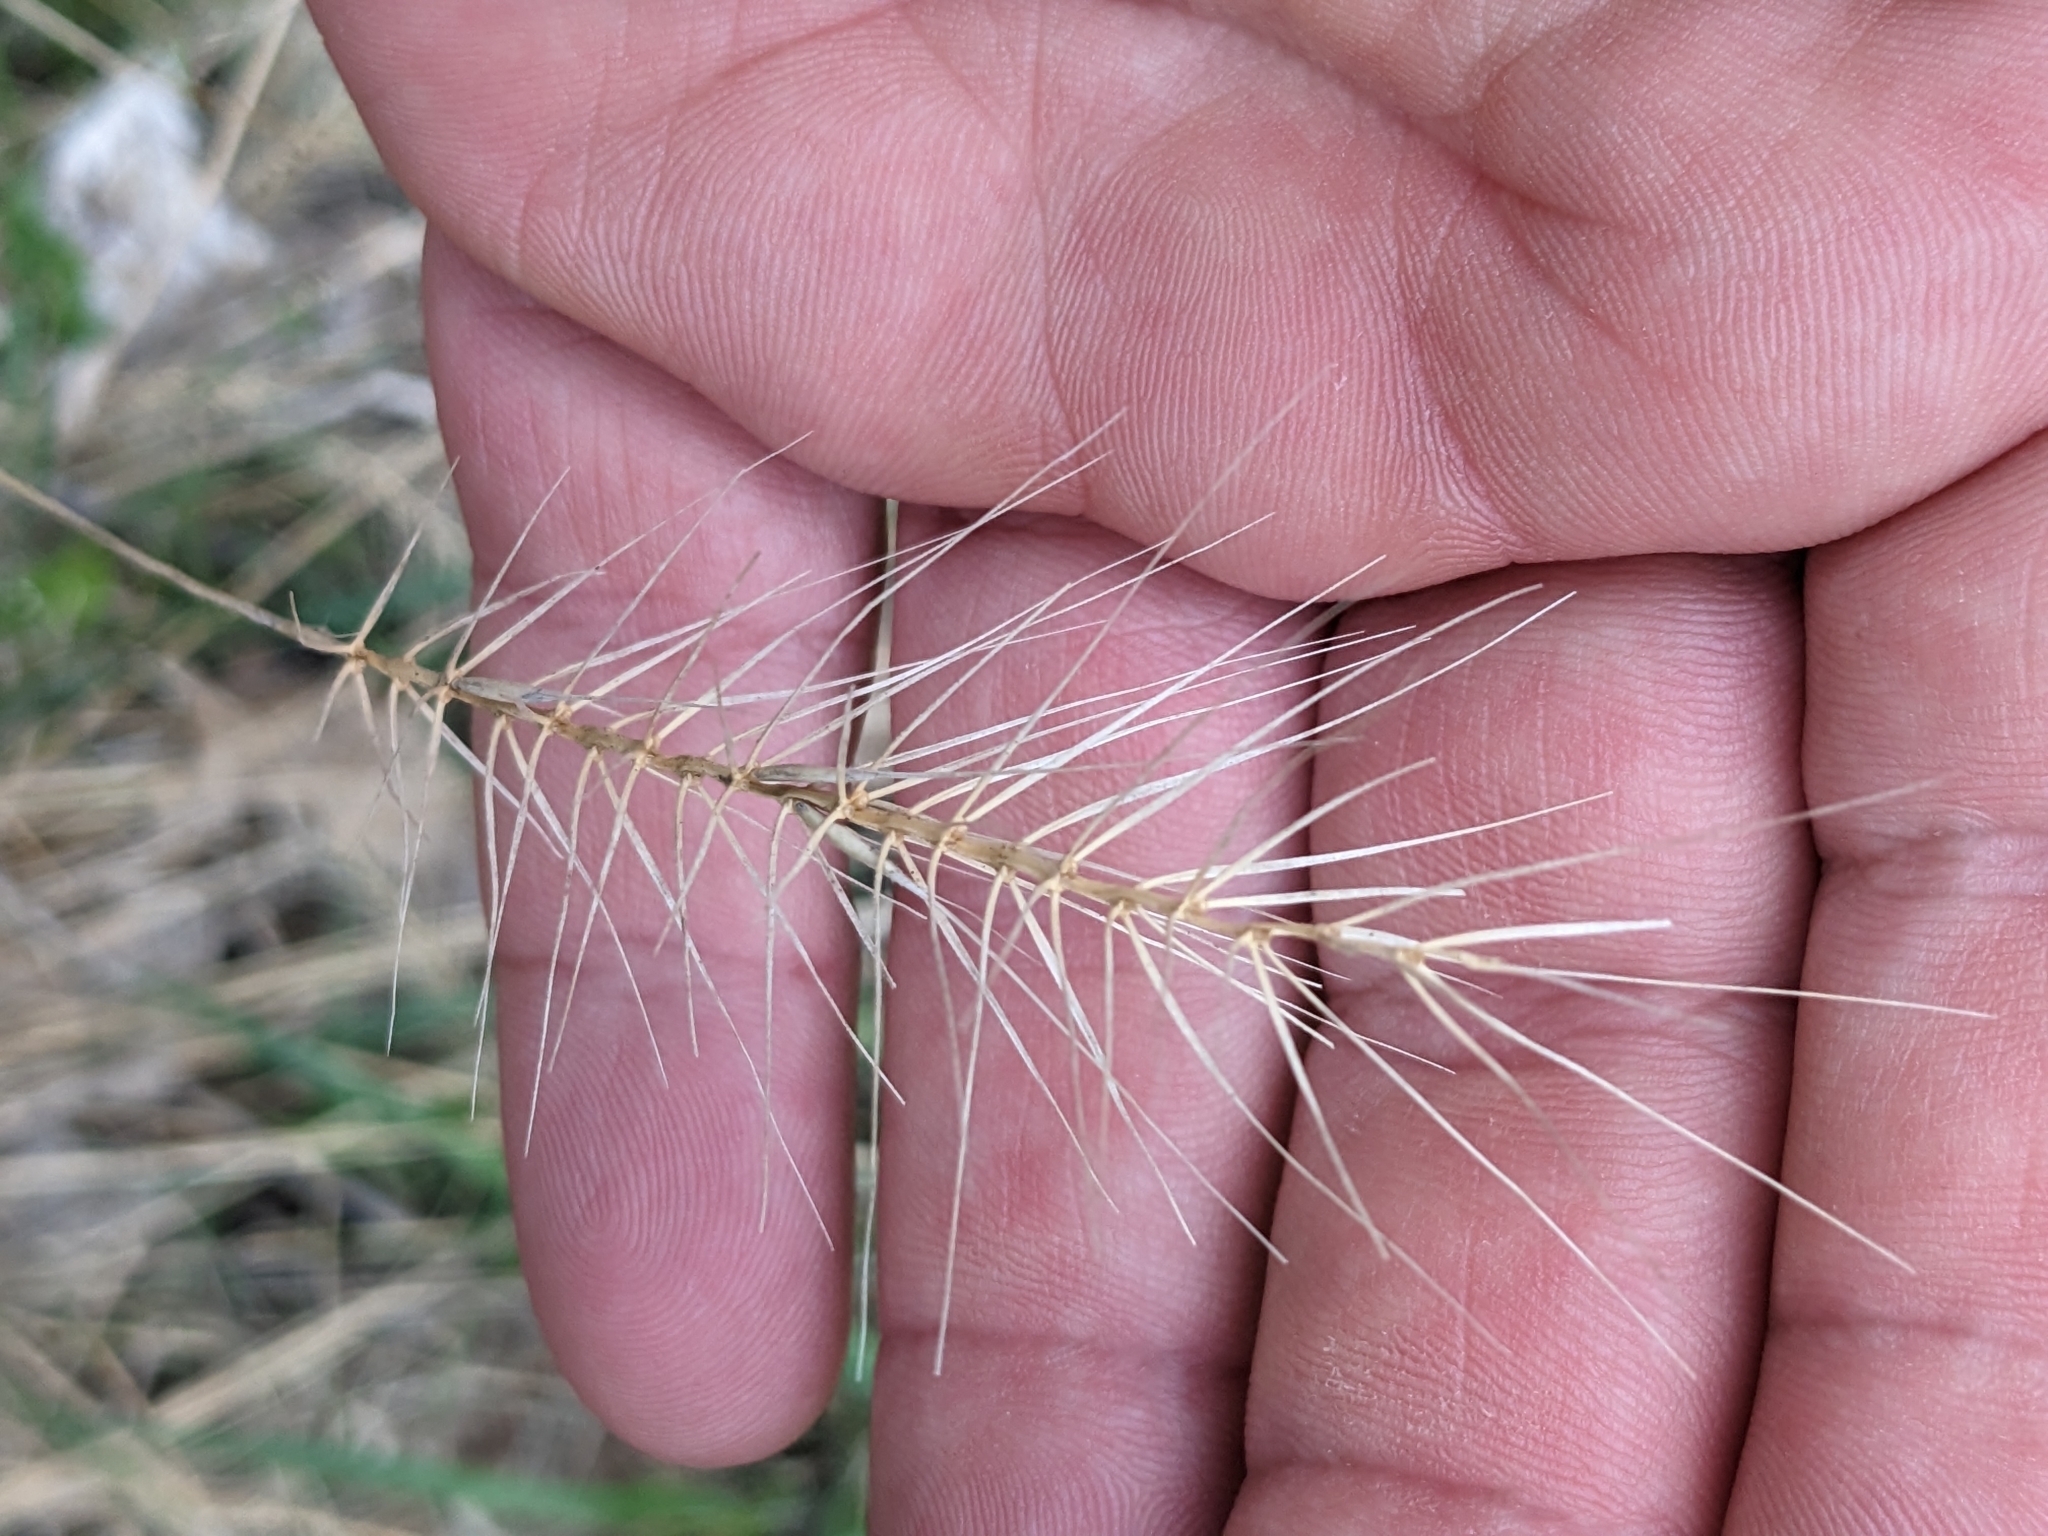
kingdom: Plantae
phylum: Tracheophyta
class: Liliopsida
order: Poales
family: Poaceae
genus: Elymus
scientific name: Elymus hystrix
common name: Bottlebrush grass
